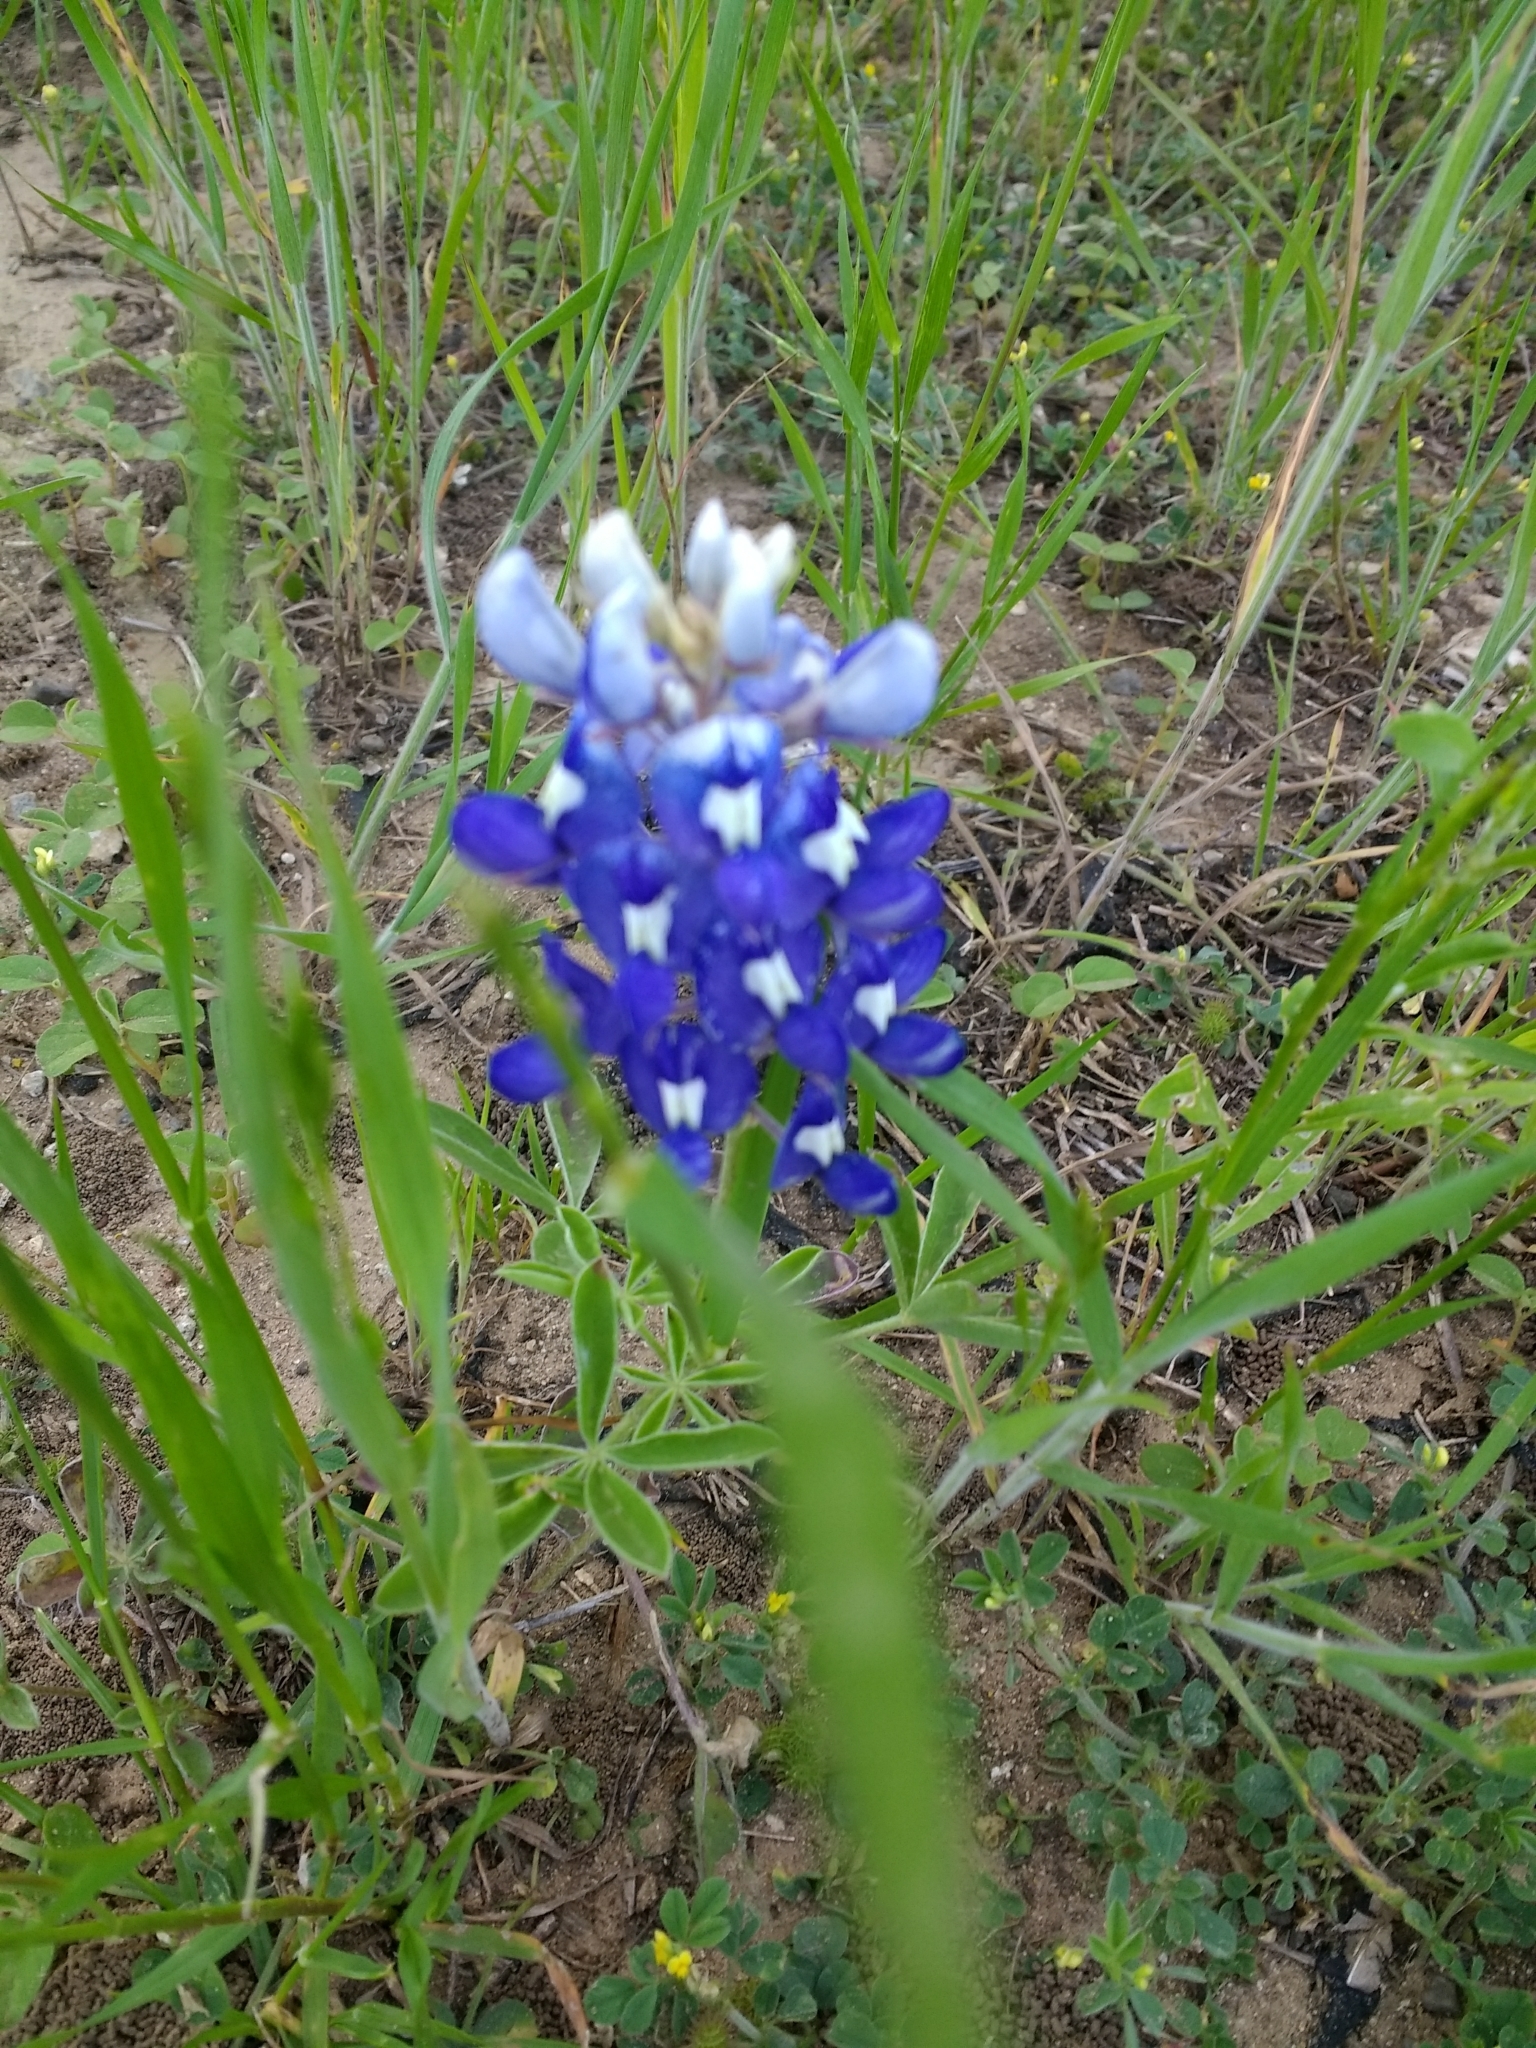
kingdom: Plantae
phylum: Tracheophyta
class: Magnoliopsida
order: Fabales
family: Fabaceae
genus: Lupinus
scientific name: Lupinus texensis
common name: Texas bluebonnet
